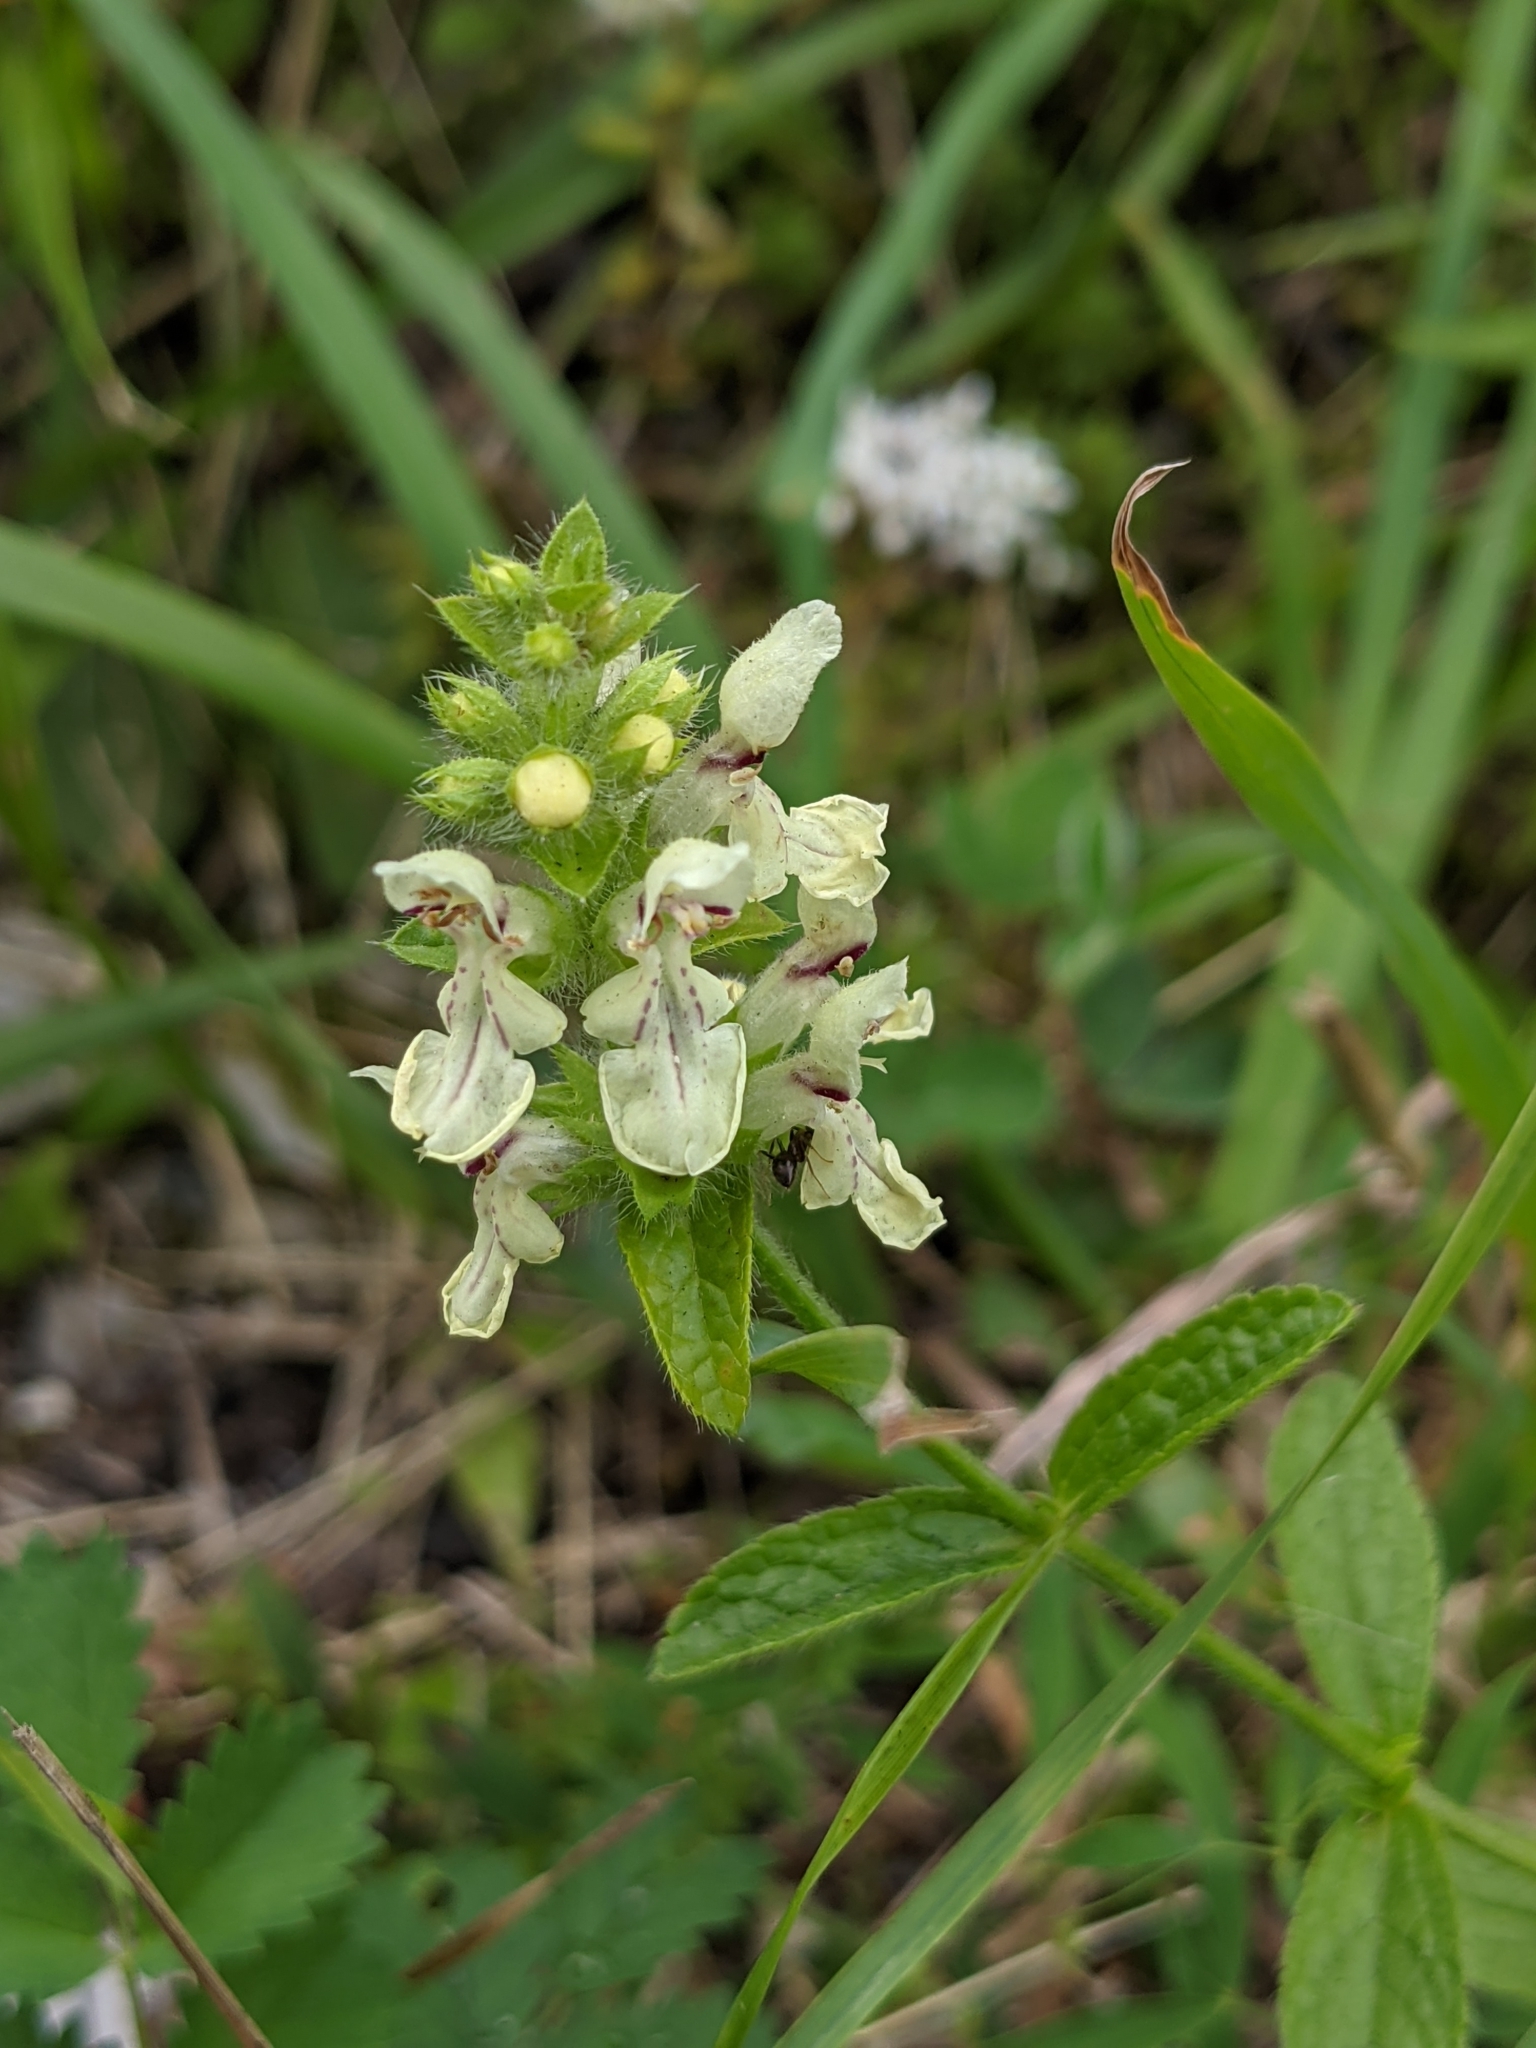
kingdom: Plantae
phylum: Tracheophyta
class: Magnoliopsida
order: Lamiales
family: Lamiaceae
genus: Stachys
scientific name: Stachys recta
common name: Perennial yellow-woundwort
